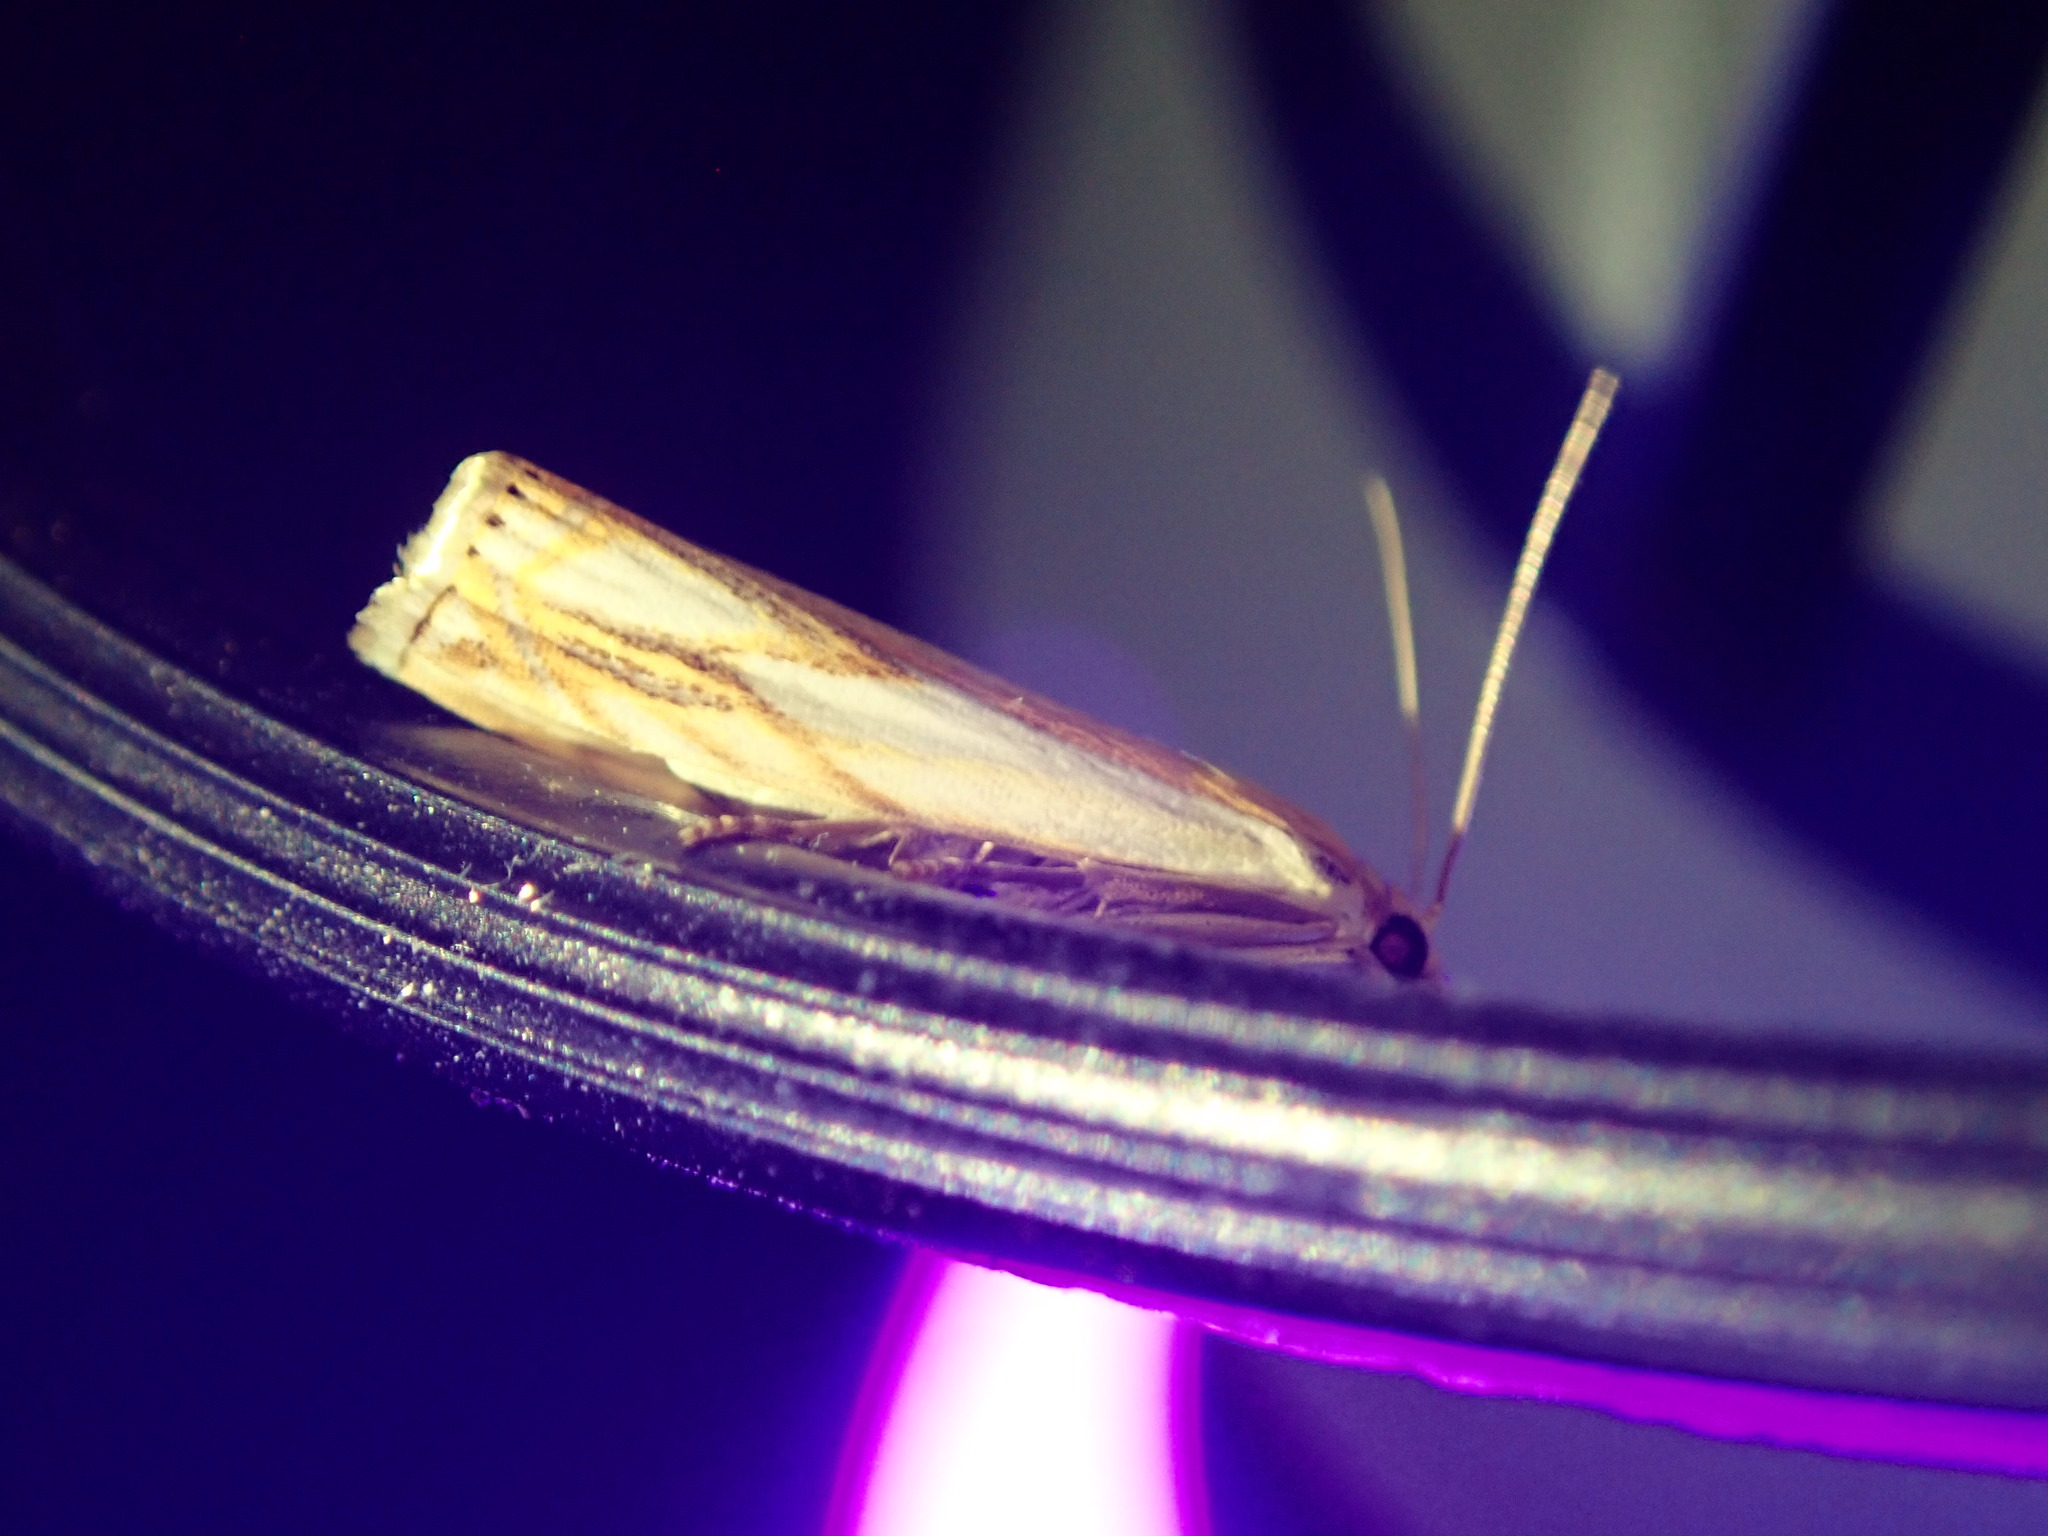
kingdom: Animalia
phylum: Arthropoda
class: Insecta
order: Lepidoptera
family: Crambidae
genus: Crambus
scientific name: Crambus agitatellus
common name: Double-banded grass-veneer
